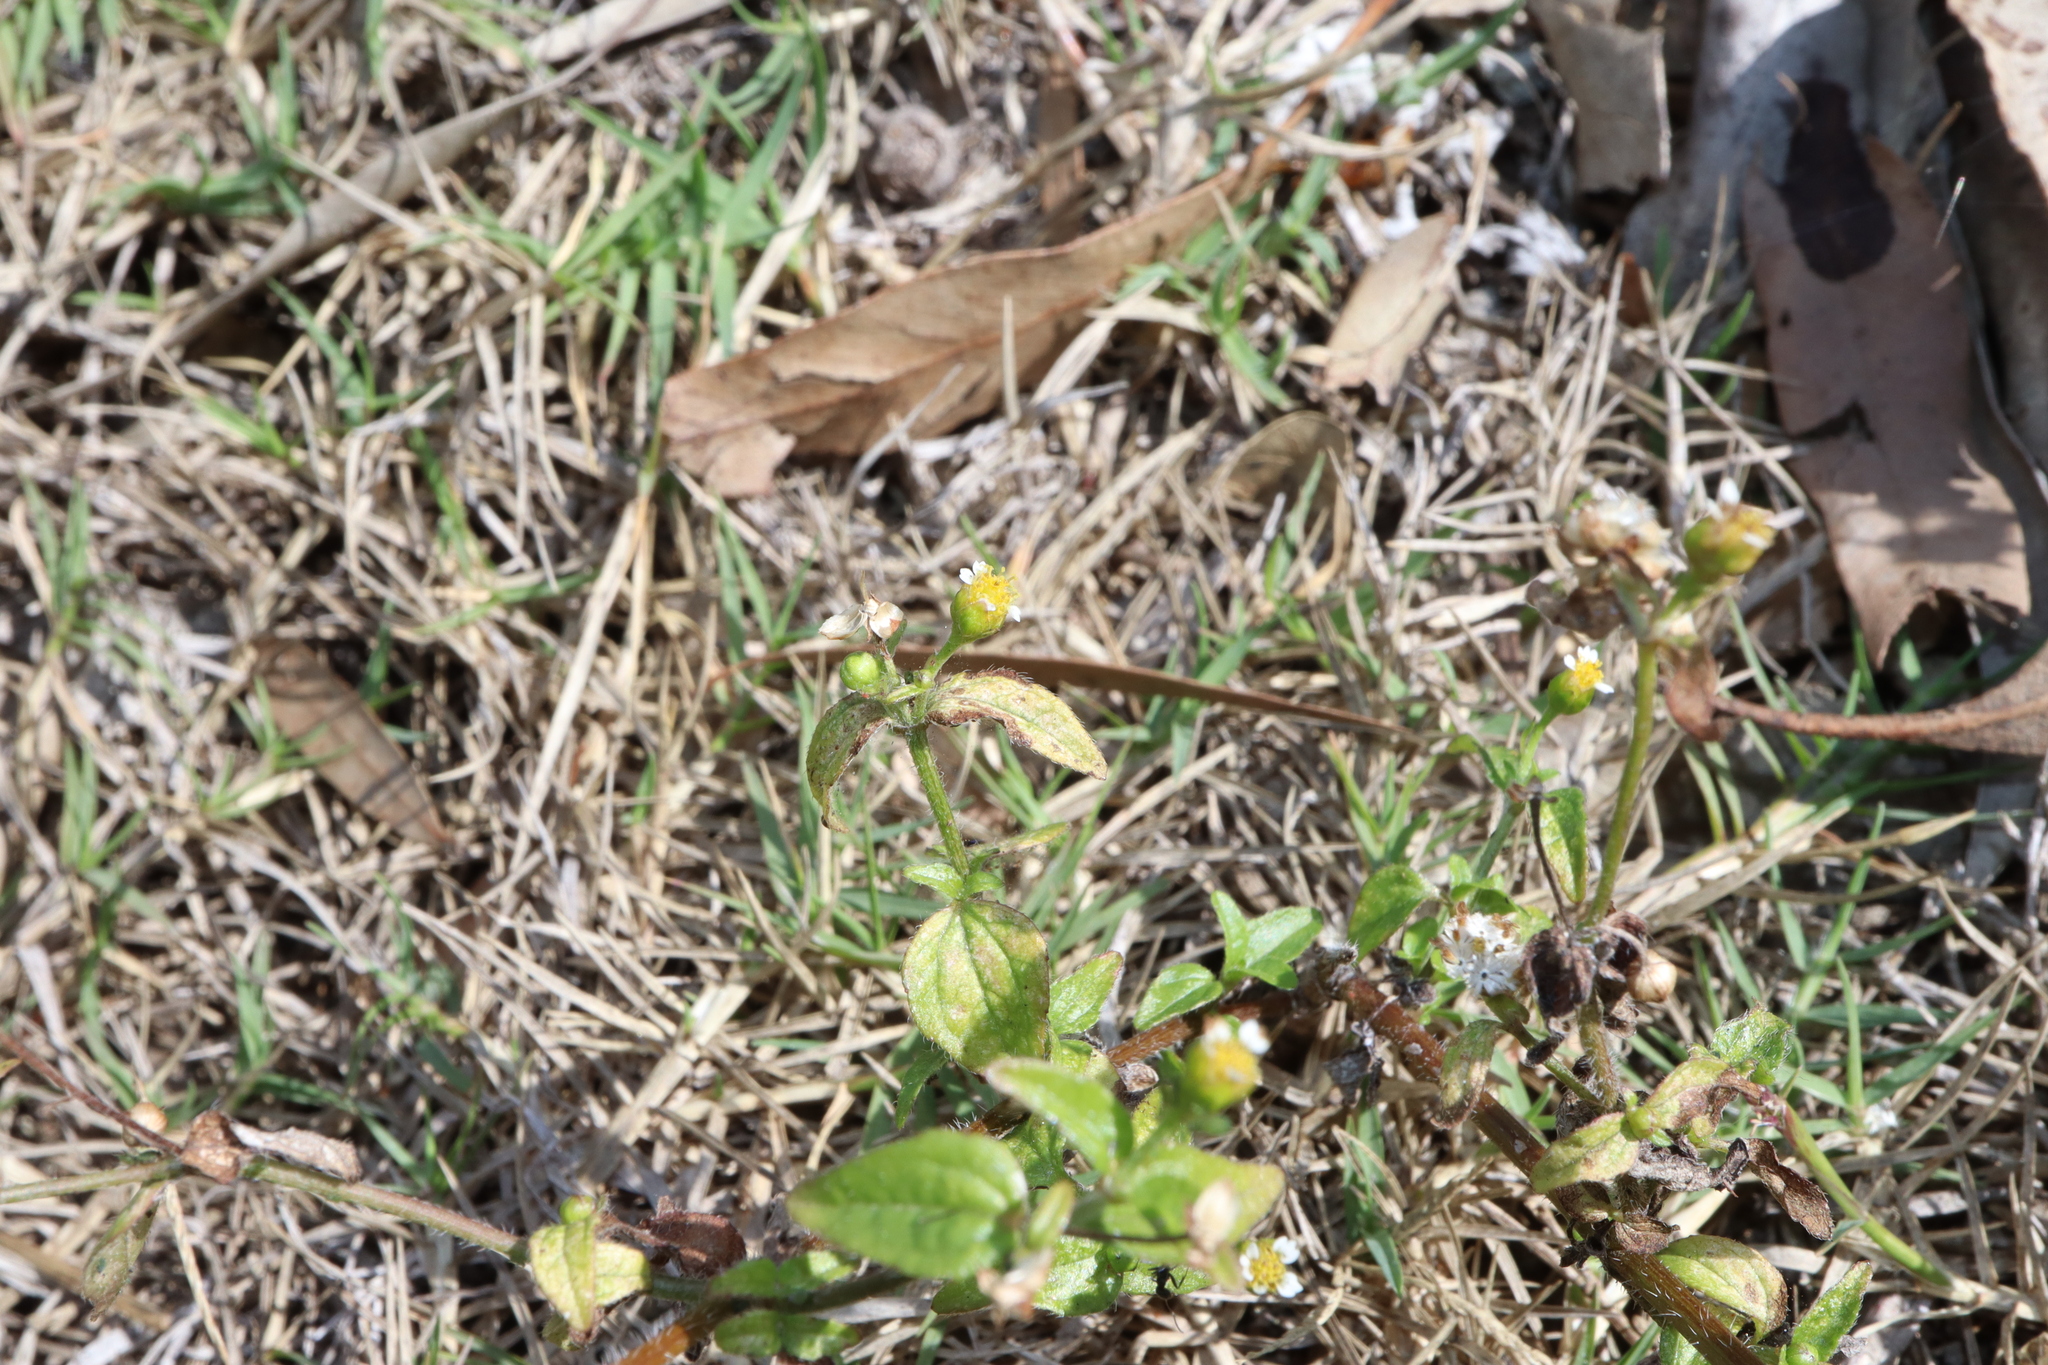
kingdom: Plantae
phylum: Tracheophyta
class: Magnoliopsida
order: Asterales
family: Asteraceae
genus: Galinsoga
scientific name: Galinsoga parviflora
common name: Gallant soldier
